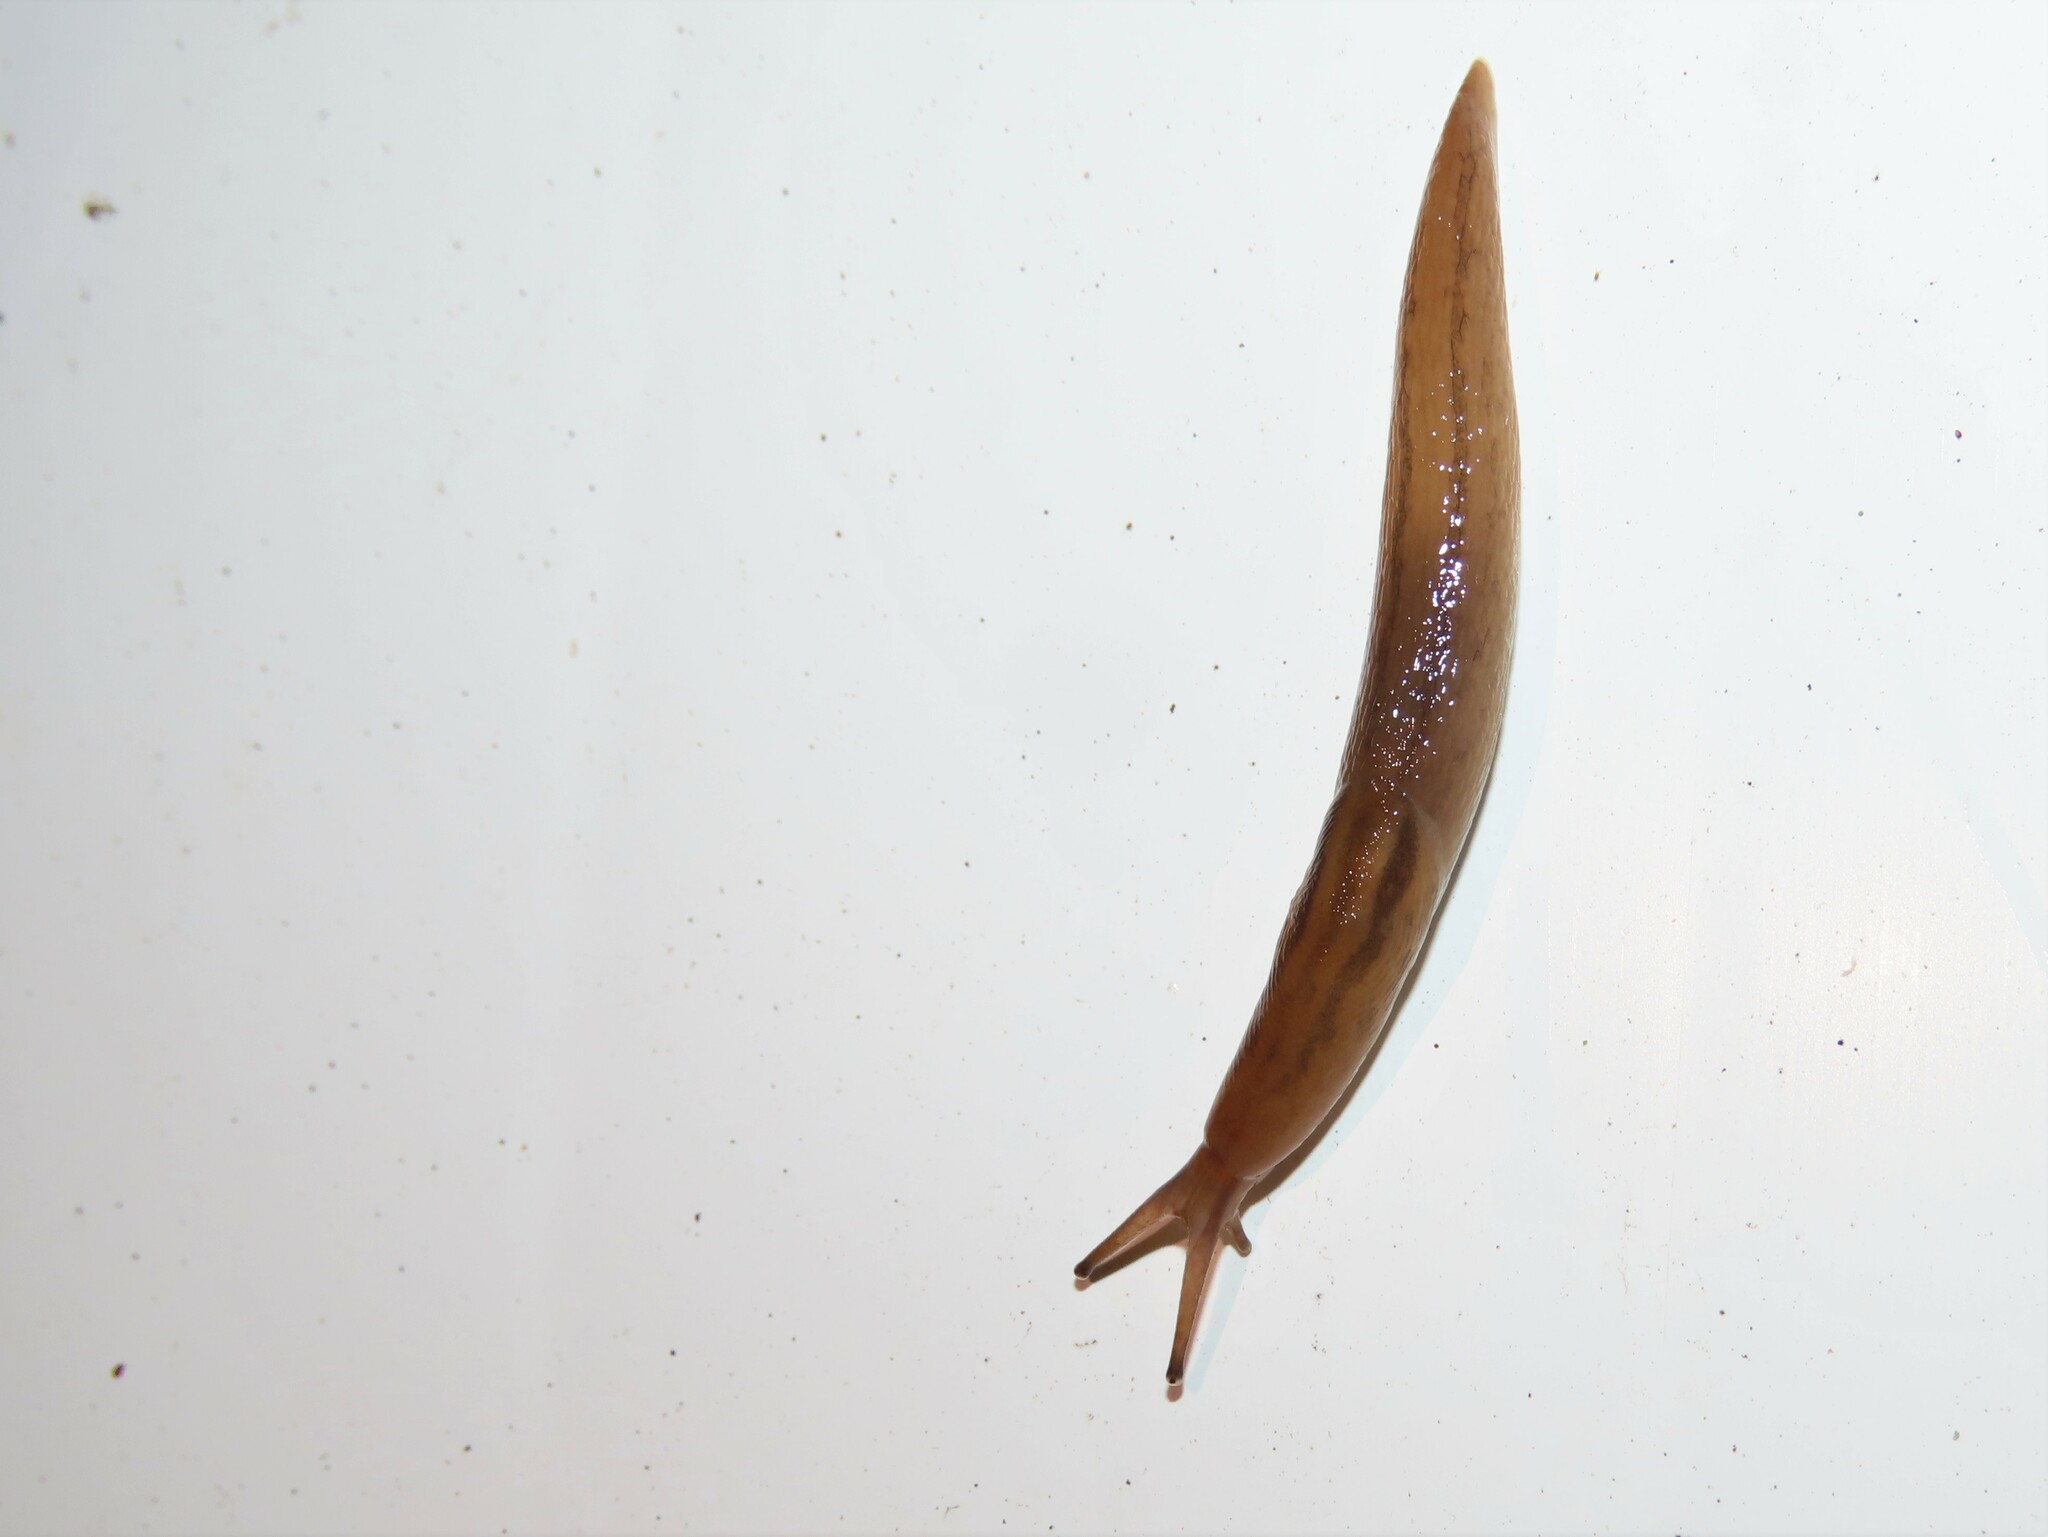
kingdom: Animalia
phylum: Mollusca
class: Gastropoda
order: Stylommatophora
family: Limacidae
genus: Ambigolimax
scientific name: Ambigolimax valentianus
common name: Greenhouse slug
